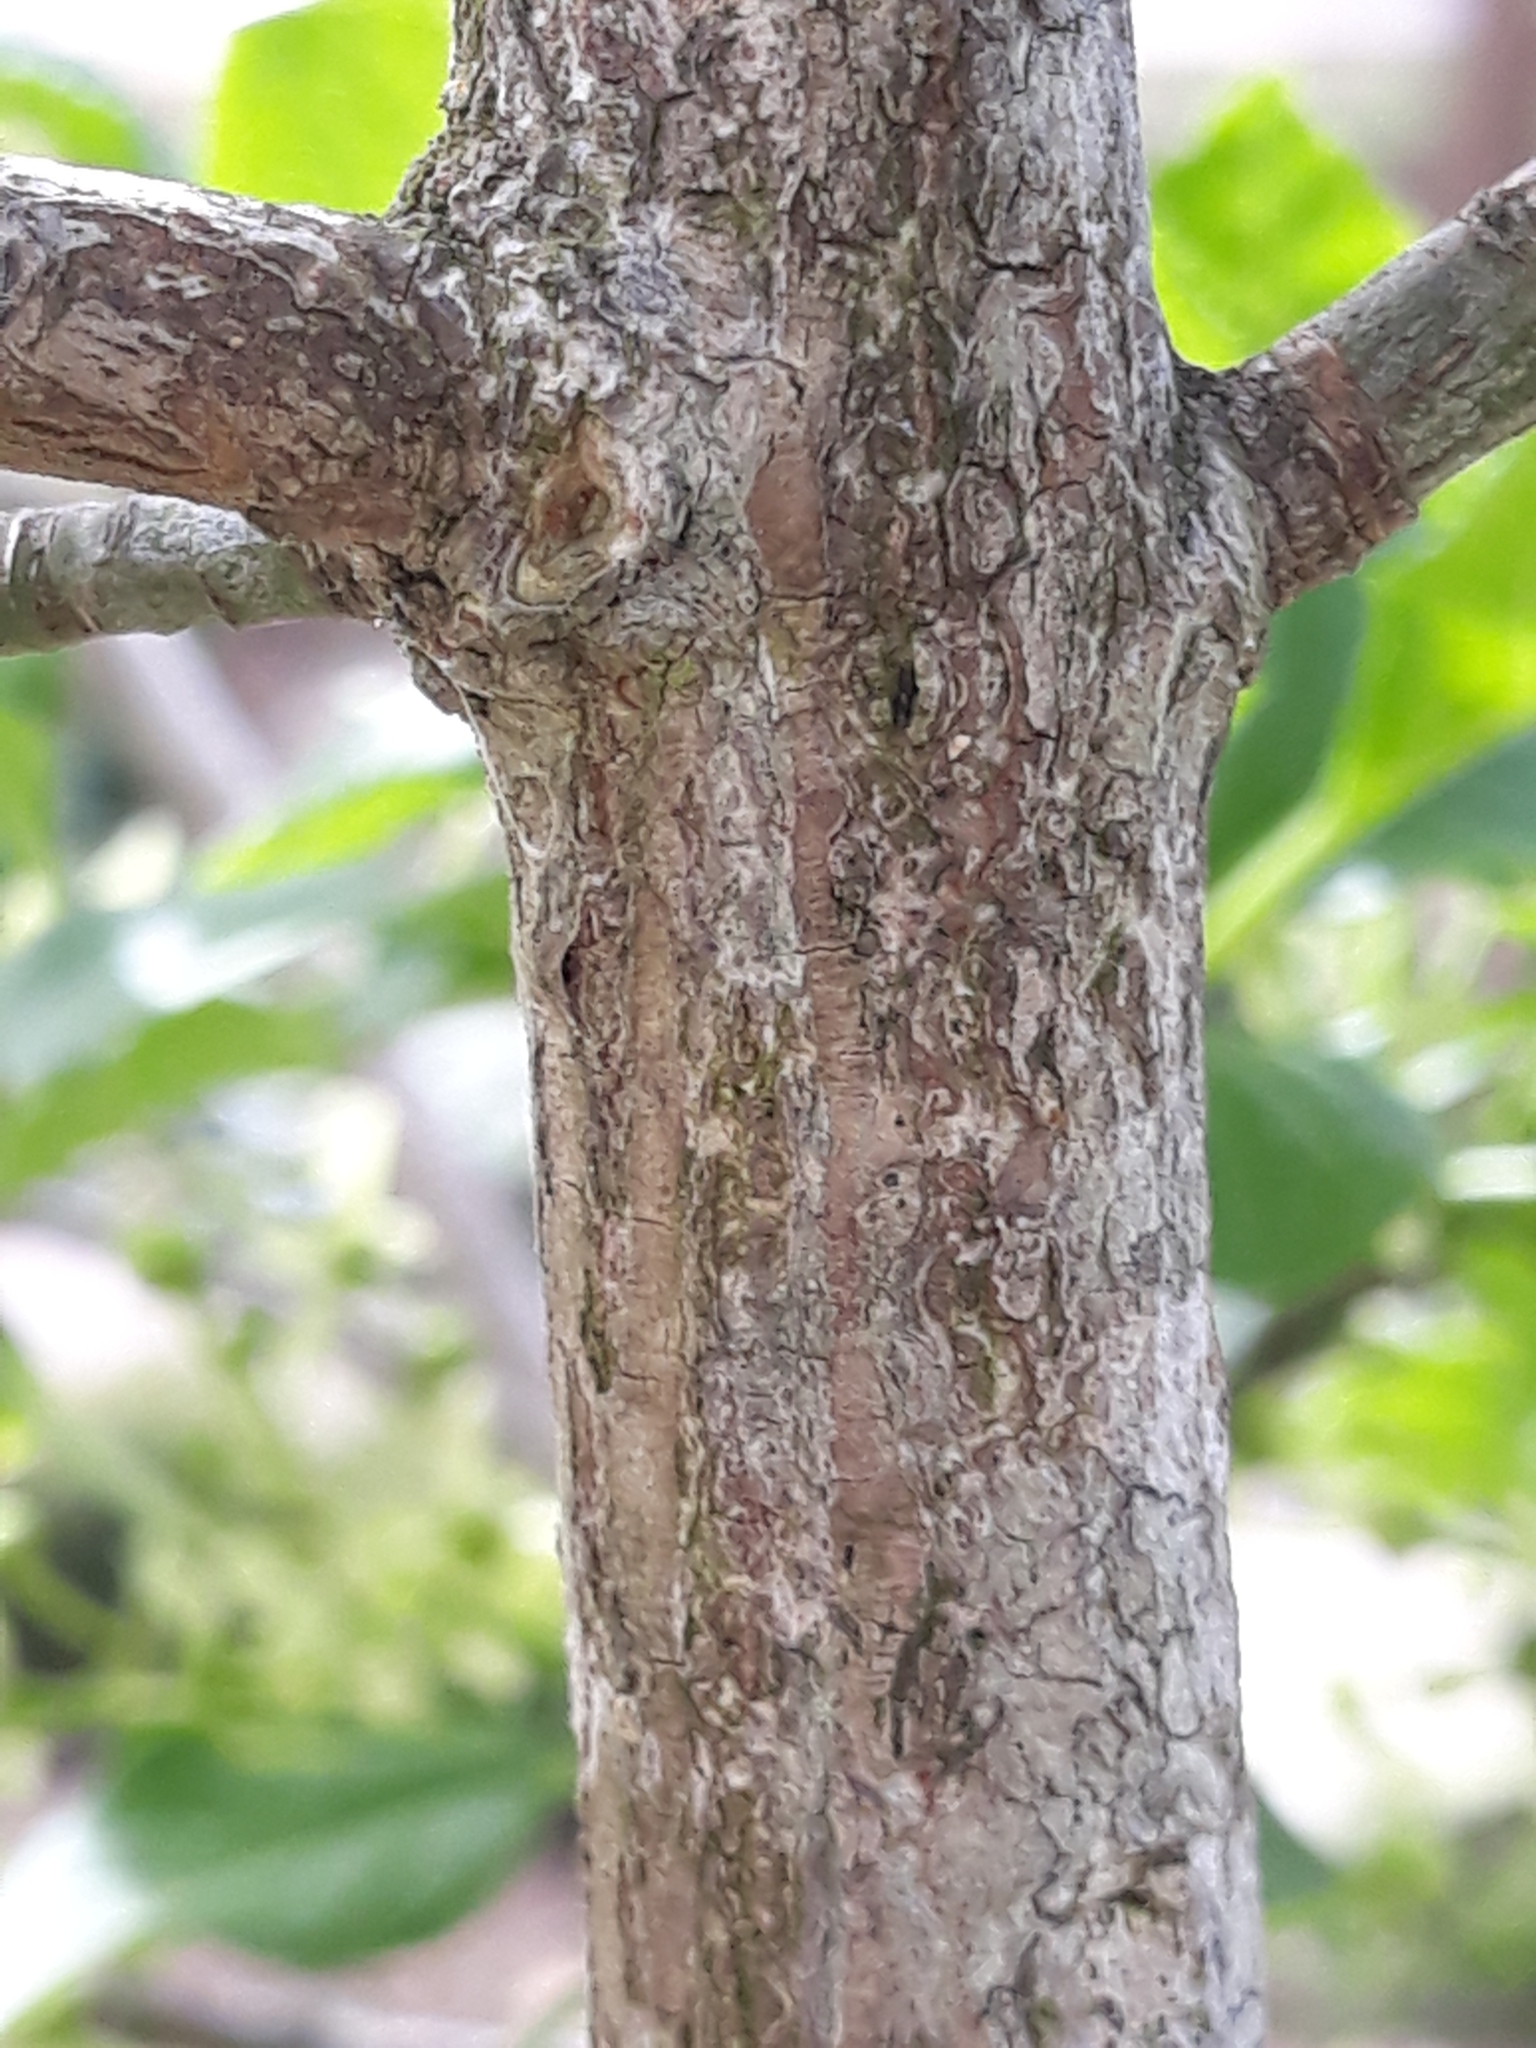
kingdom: Plantae
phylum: Tracheophyta
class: Magnoliopsida
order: Celastrales
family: Celastraceae
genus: Euonymus
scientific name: Euonymus europaeus
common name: Spindle
